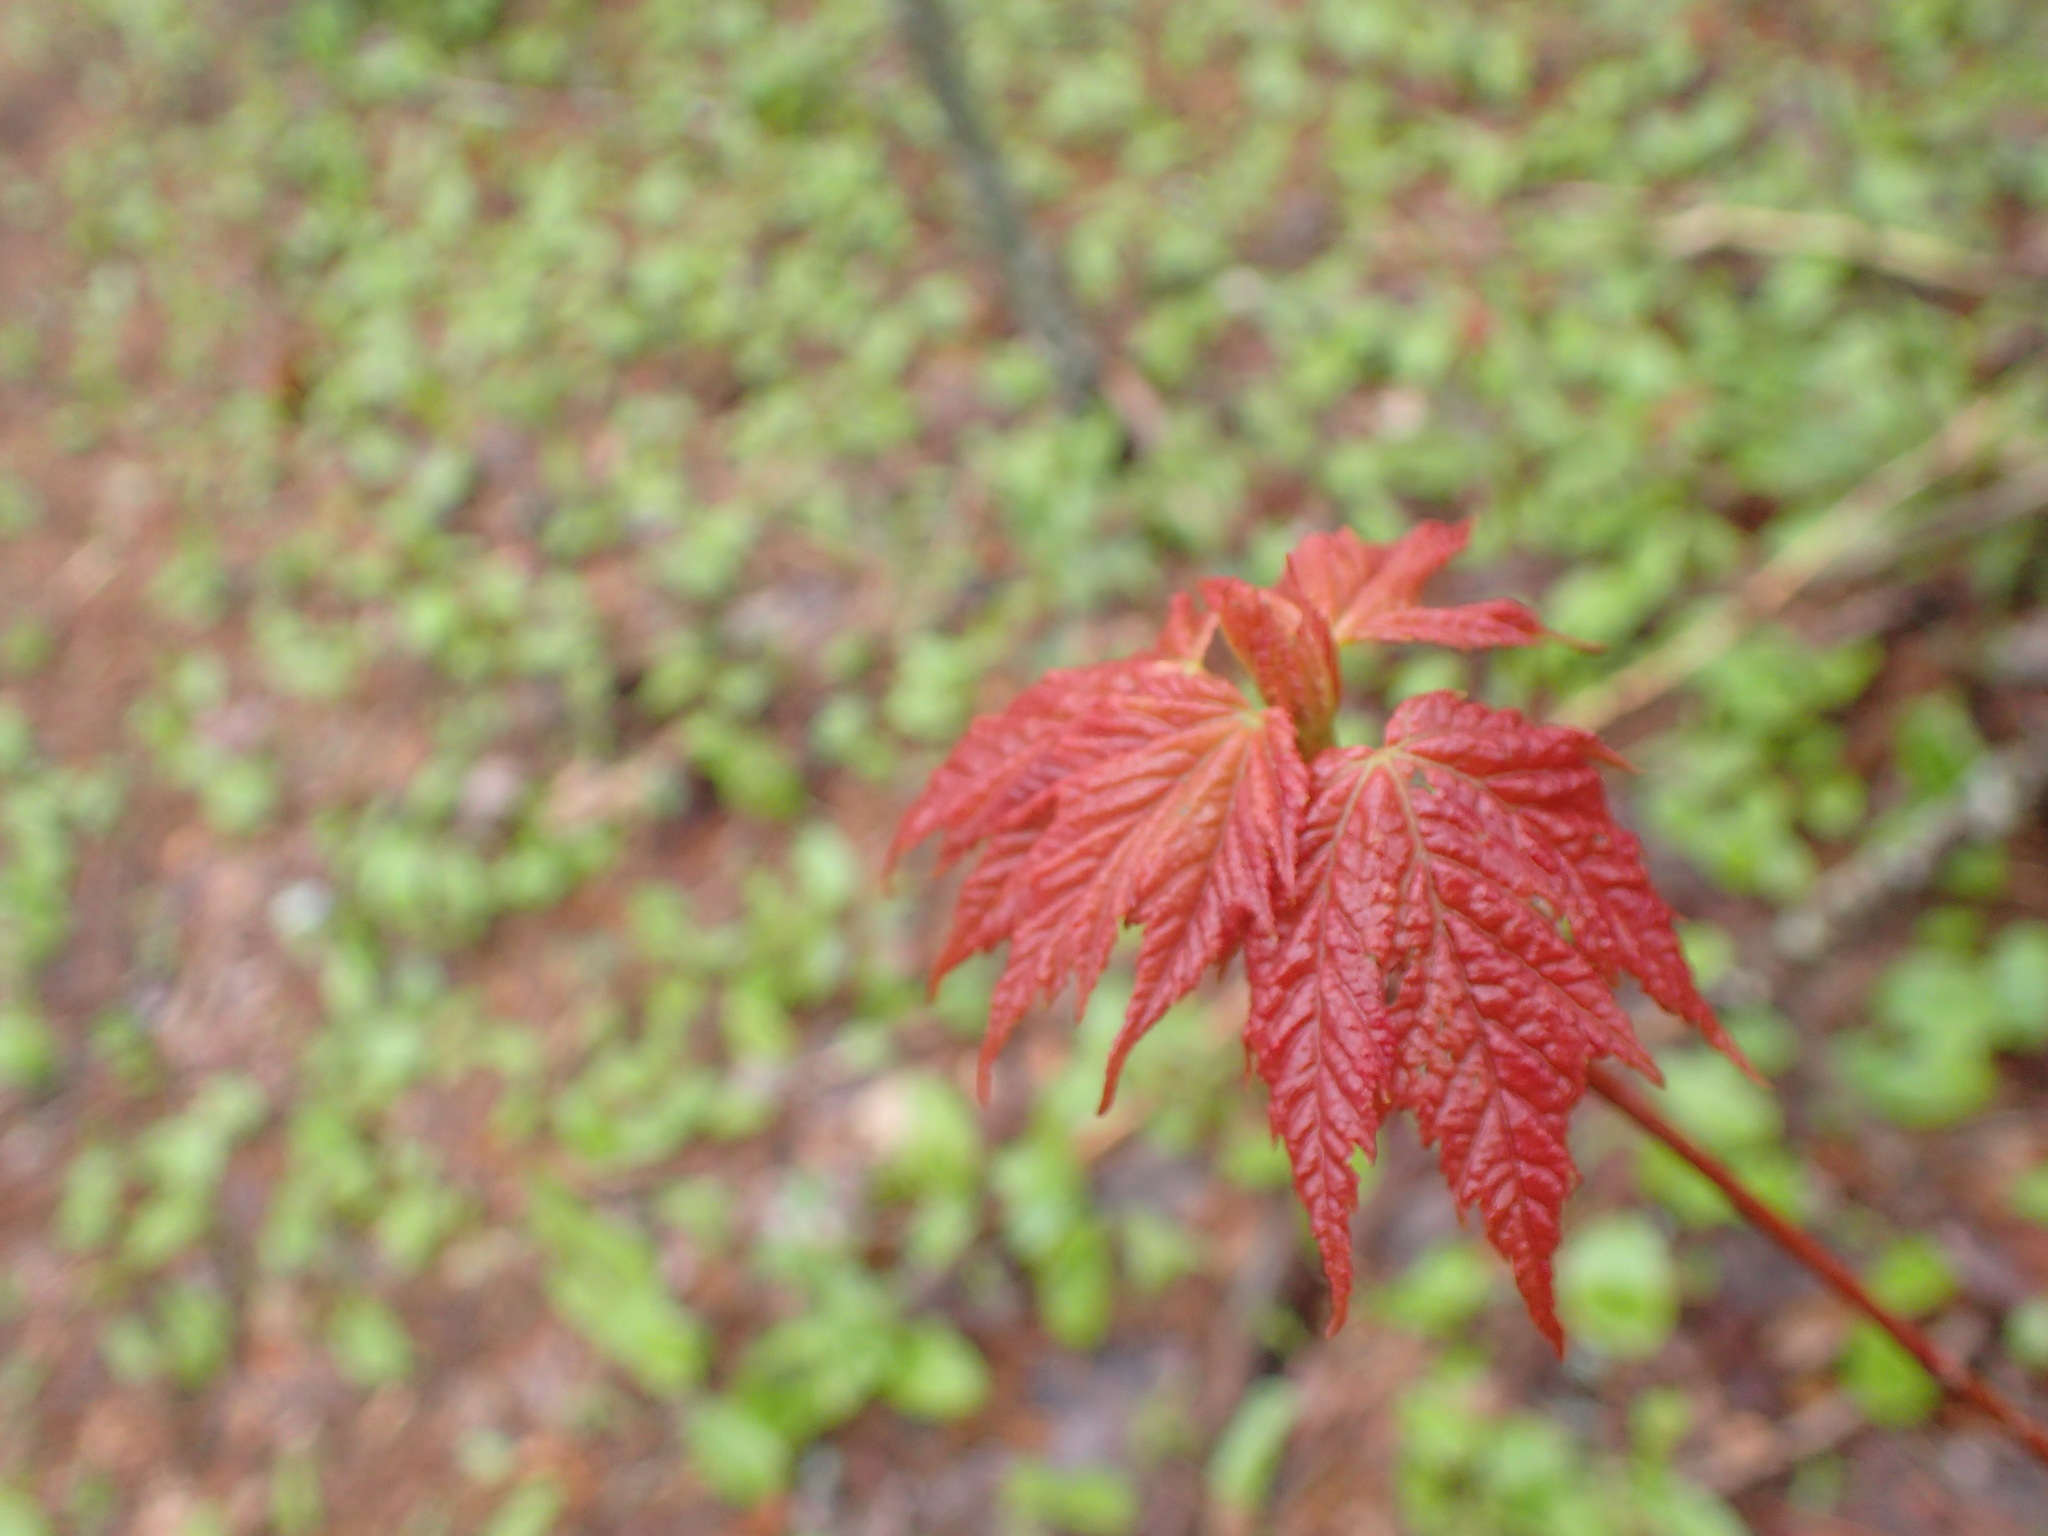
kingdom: Plantae
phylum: Tracheophyta
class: Magnoliopsida
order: Sapindales
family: Sapindaceae
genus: Acer
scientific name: Acer rubrum
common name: Red maple
